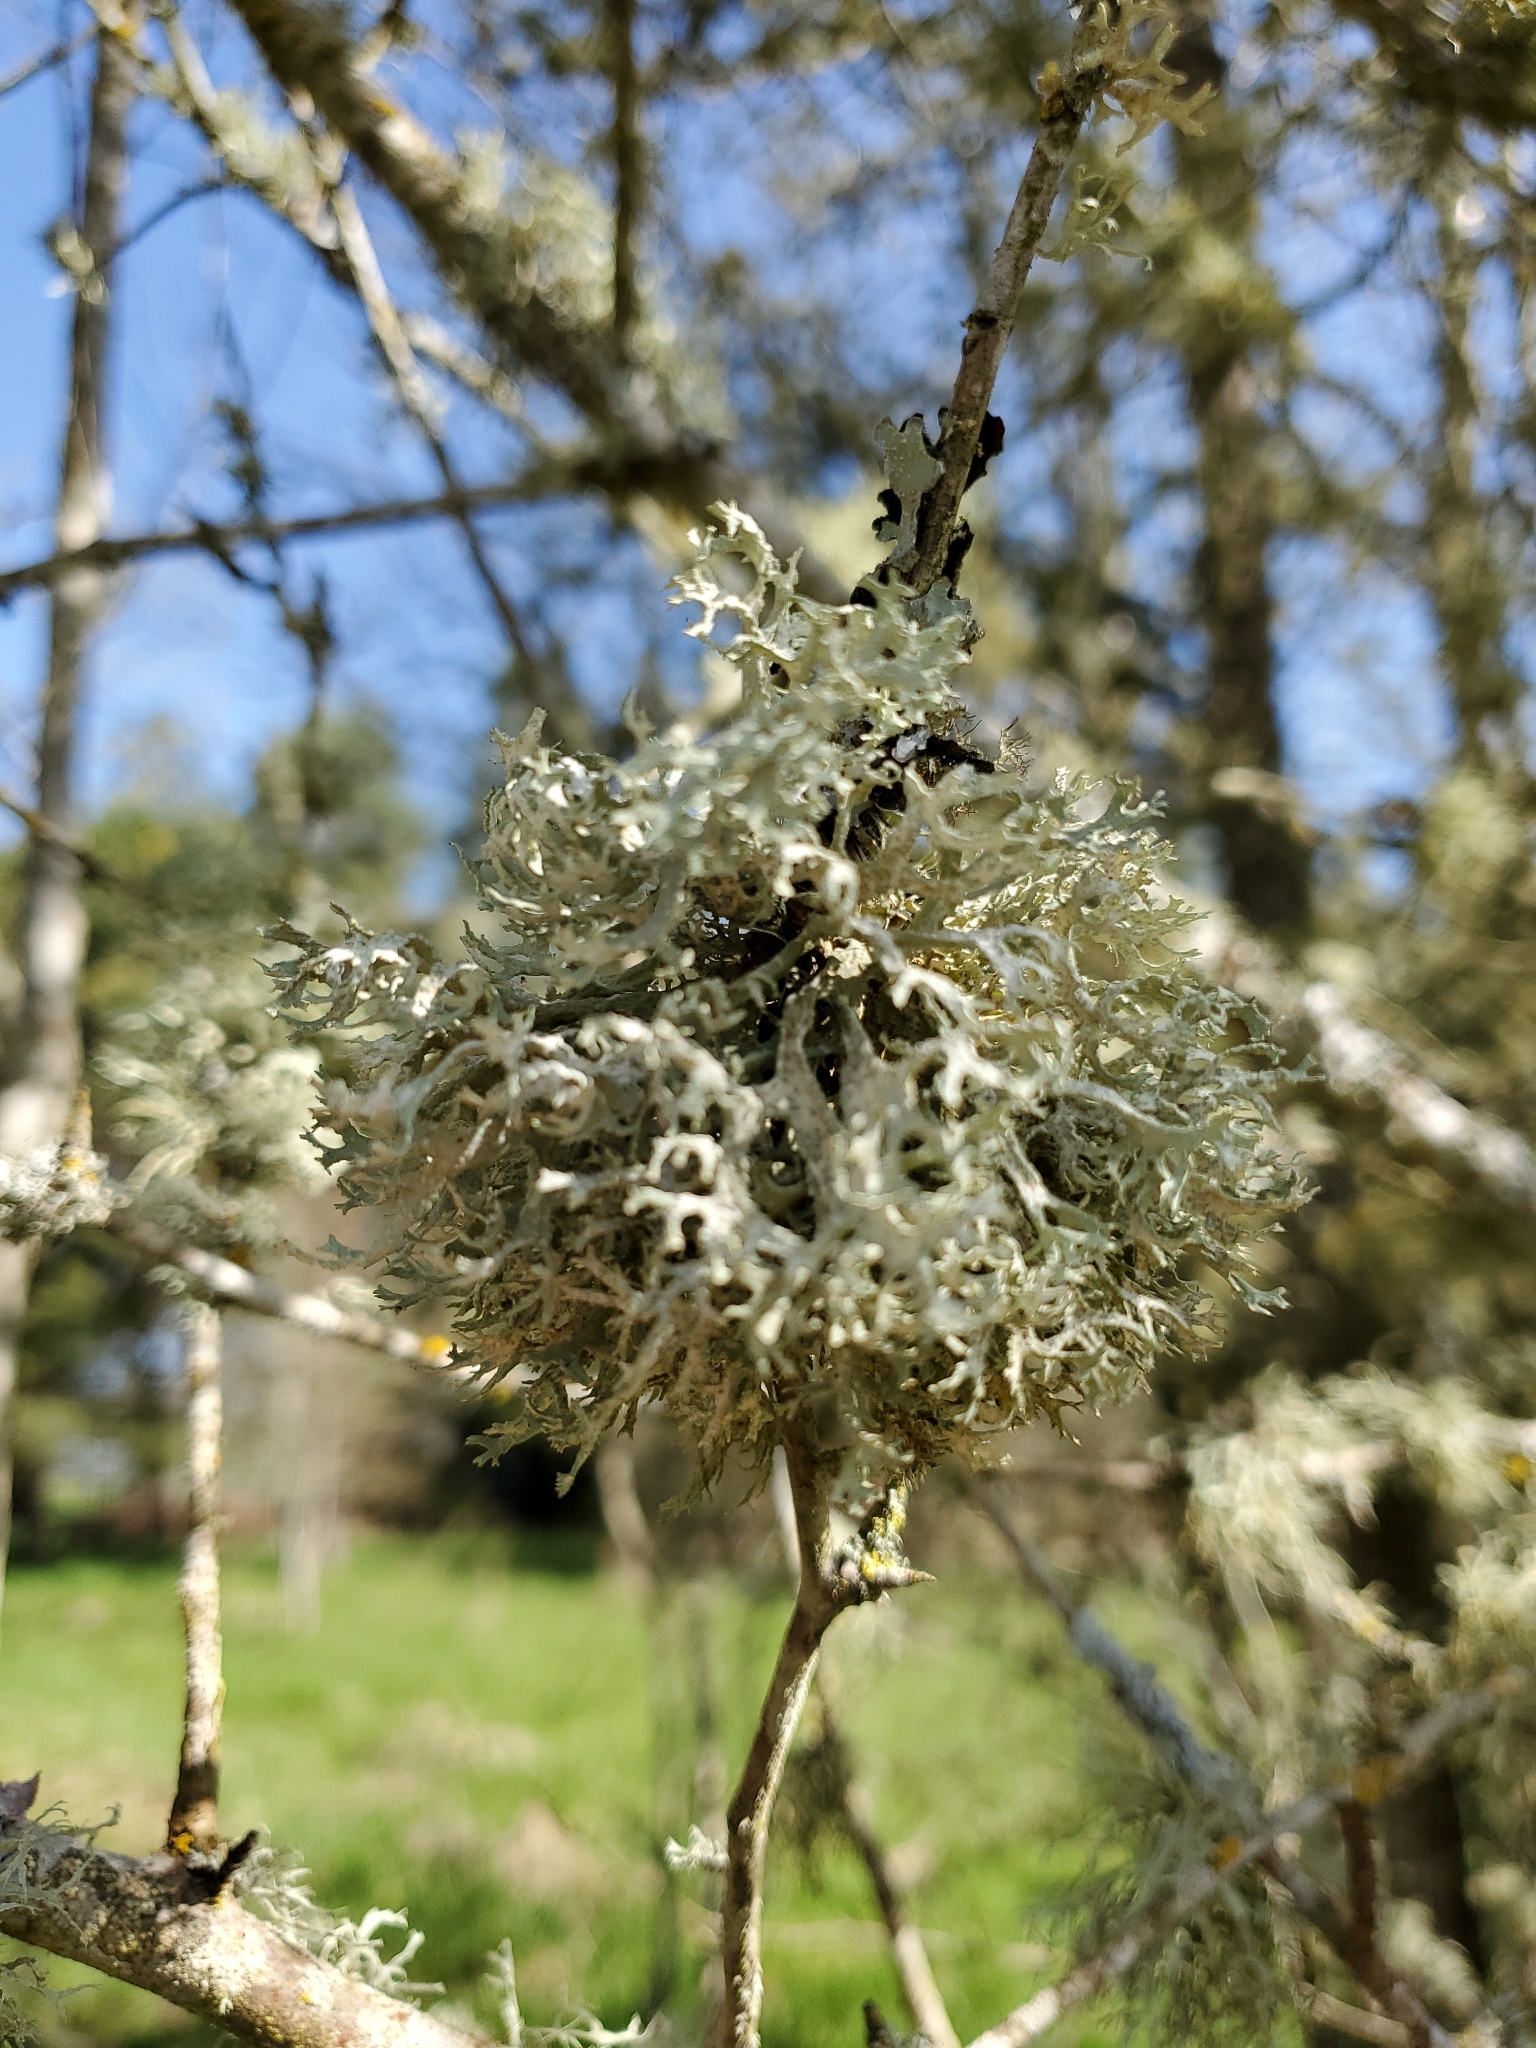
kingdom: Fungi
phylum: Ascomycota
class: Lecanoromycetes
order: Lecanorales
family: Parmeliaceae
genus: Evernia
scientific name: Evernia prunastri
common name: Oak moss
